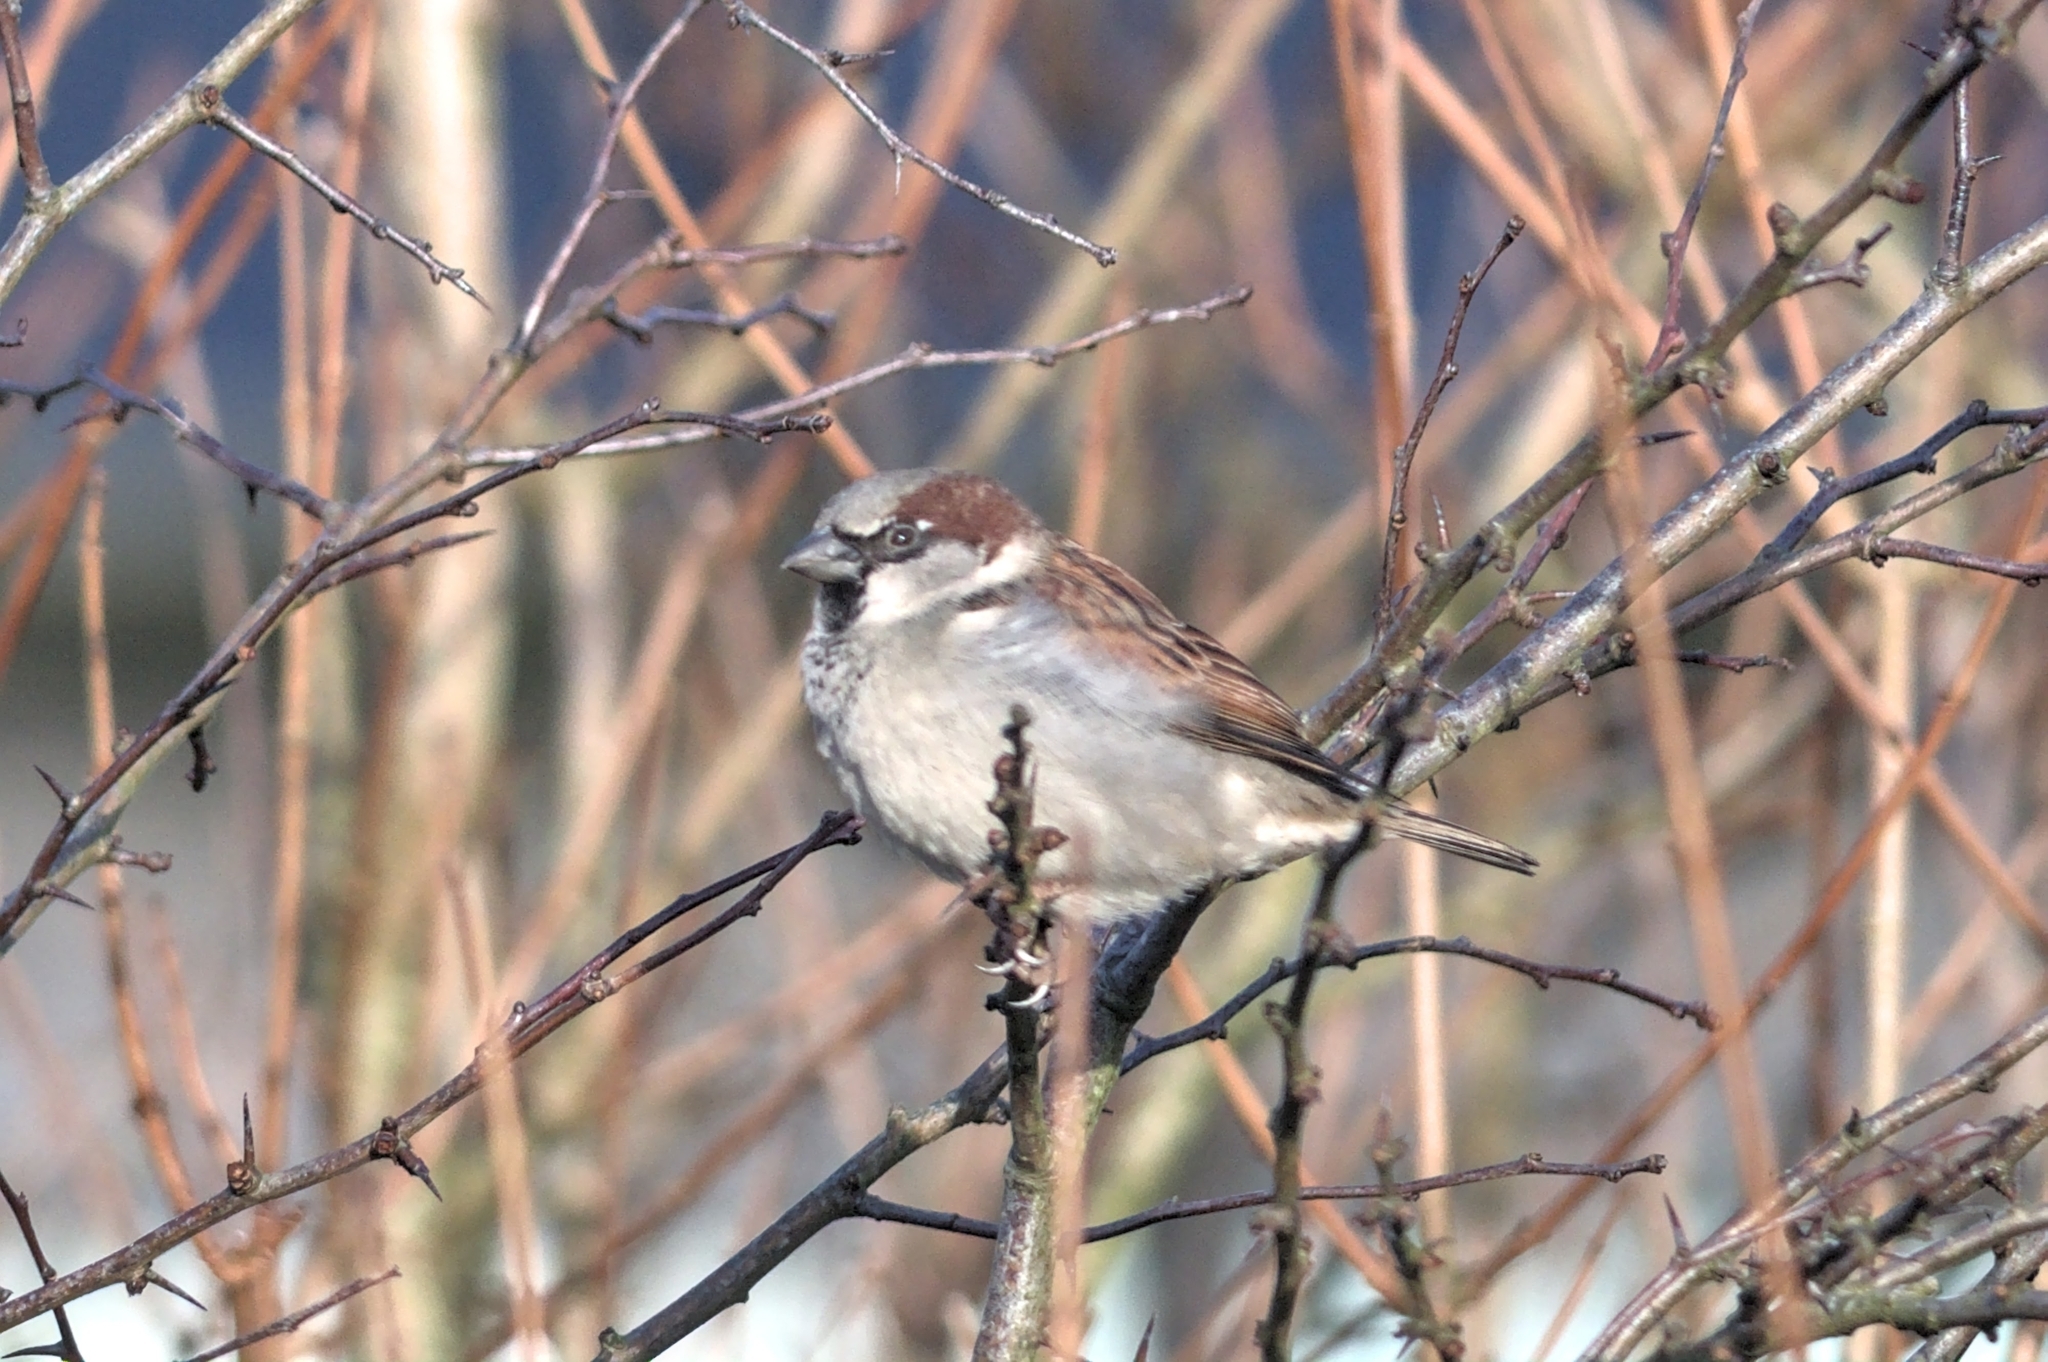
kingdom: Animalia
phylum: Chordata
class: Aves
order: Passeriformes
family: Passeridae
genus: Passer
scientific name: Passer domesticus
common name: House sparrow
